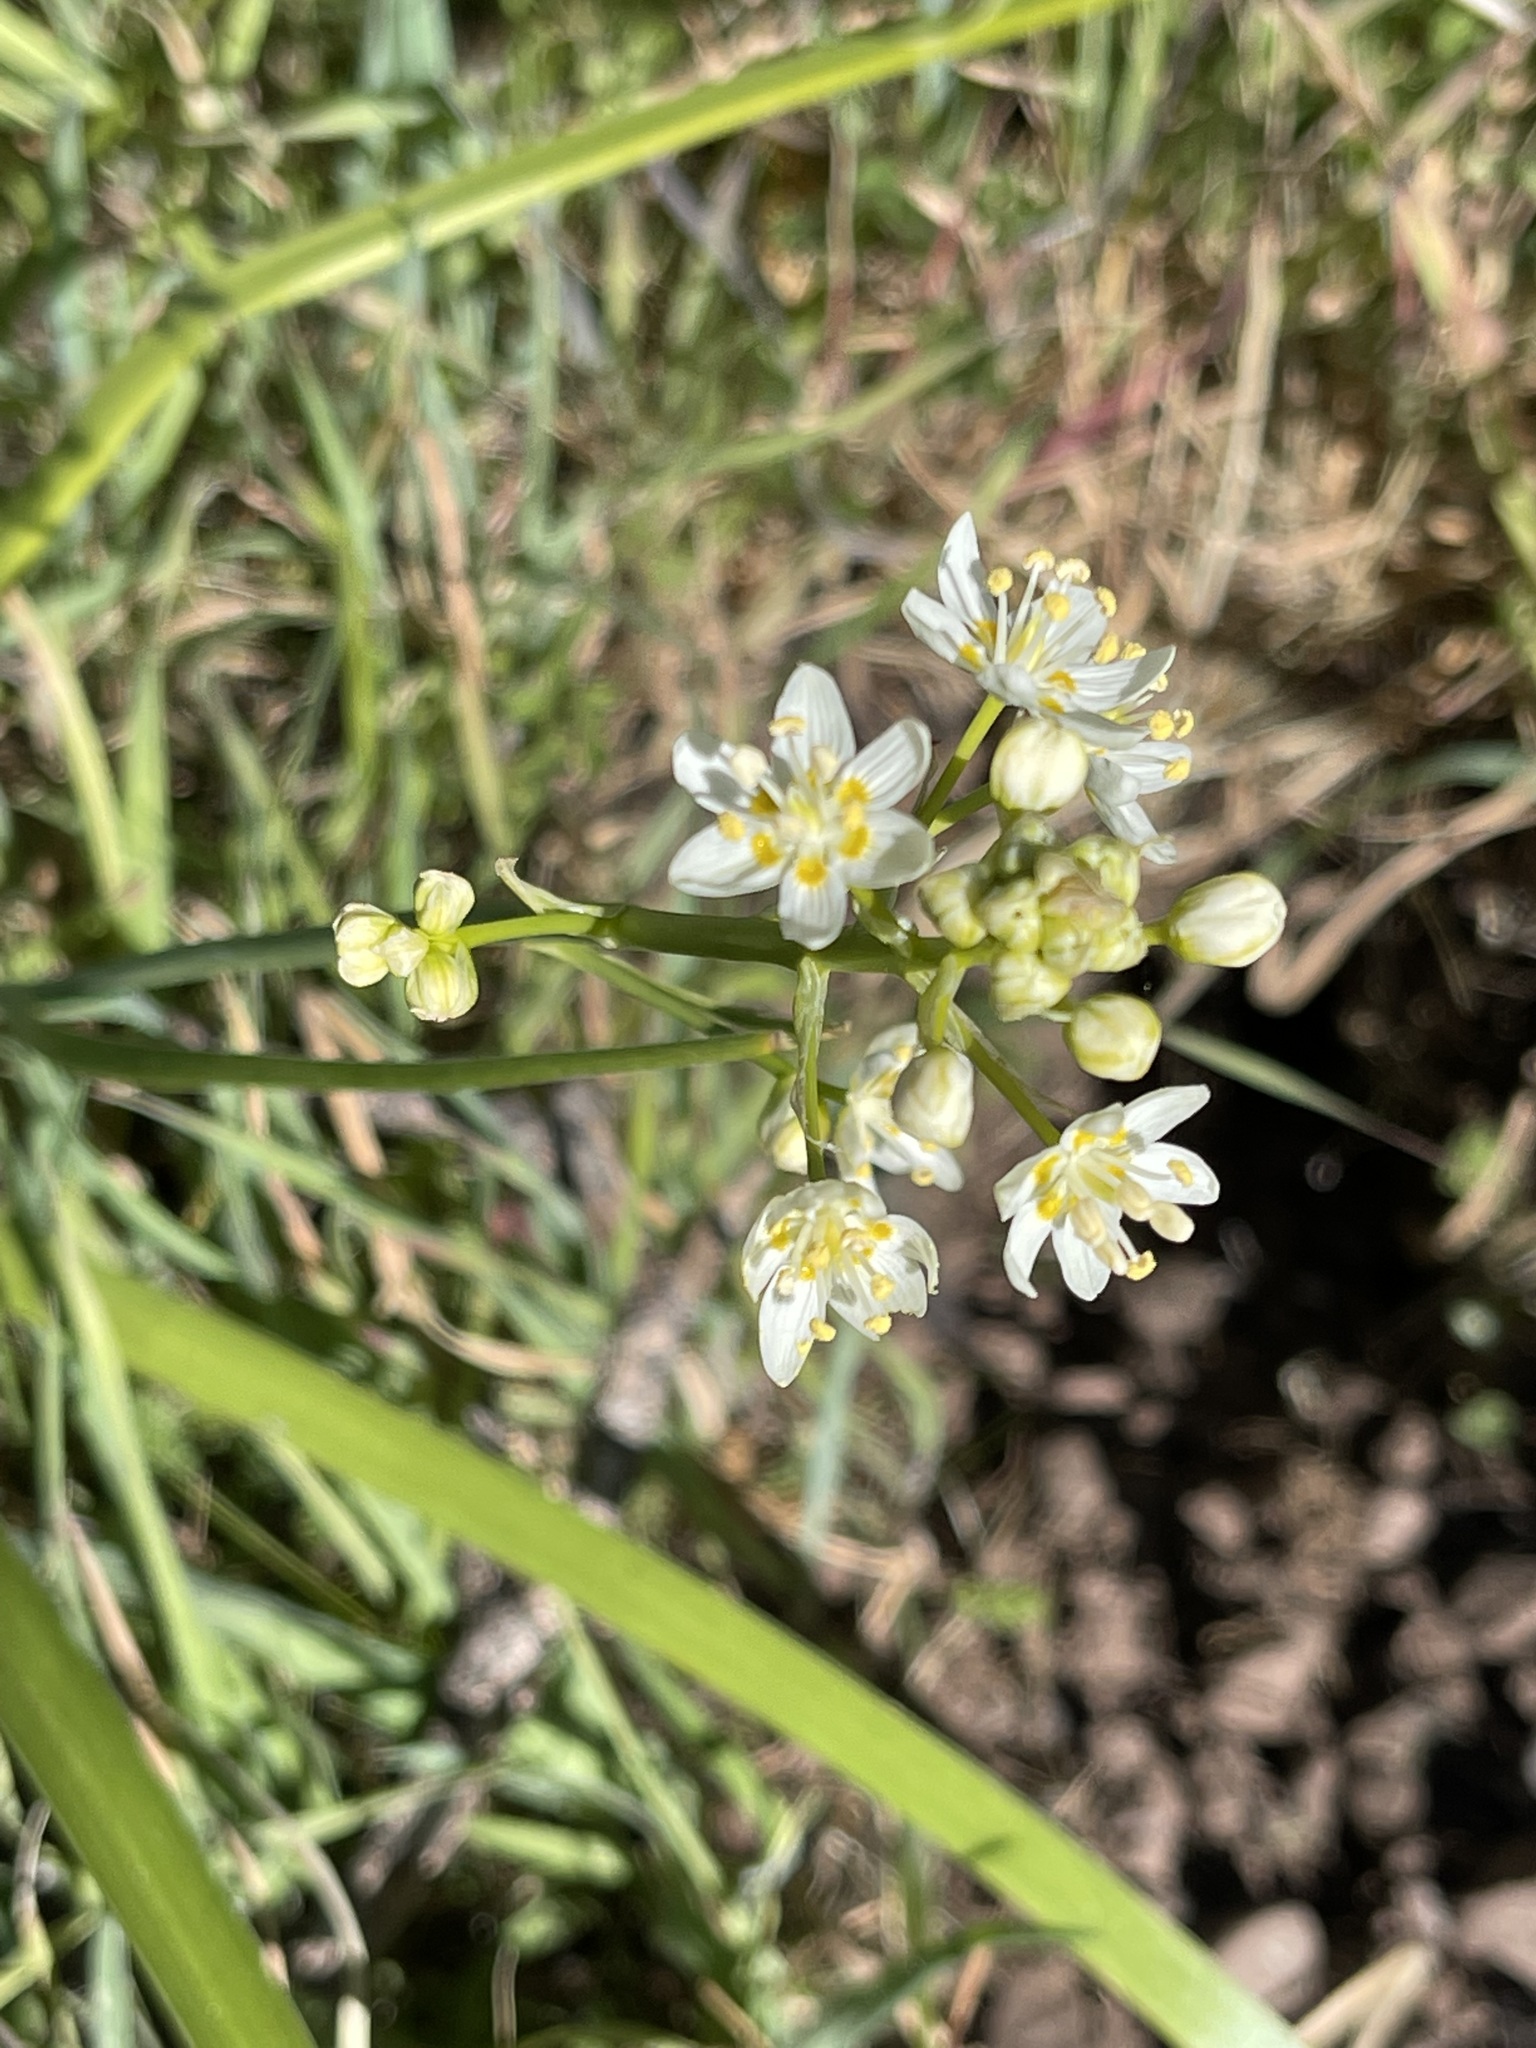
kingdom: Plantae
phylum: Tracheophyta
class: Liliopsida
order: Liliales
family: Melanthiaceae
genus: Toxicoscordion
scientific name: Toxicoscordion fremontii
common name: Fremont's death camas
